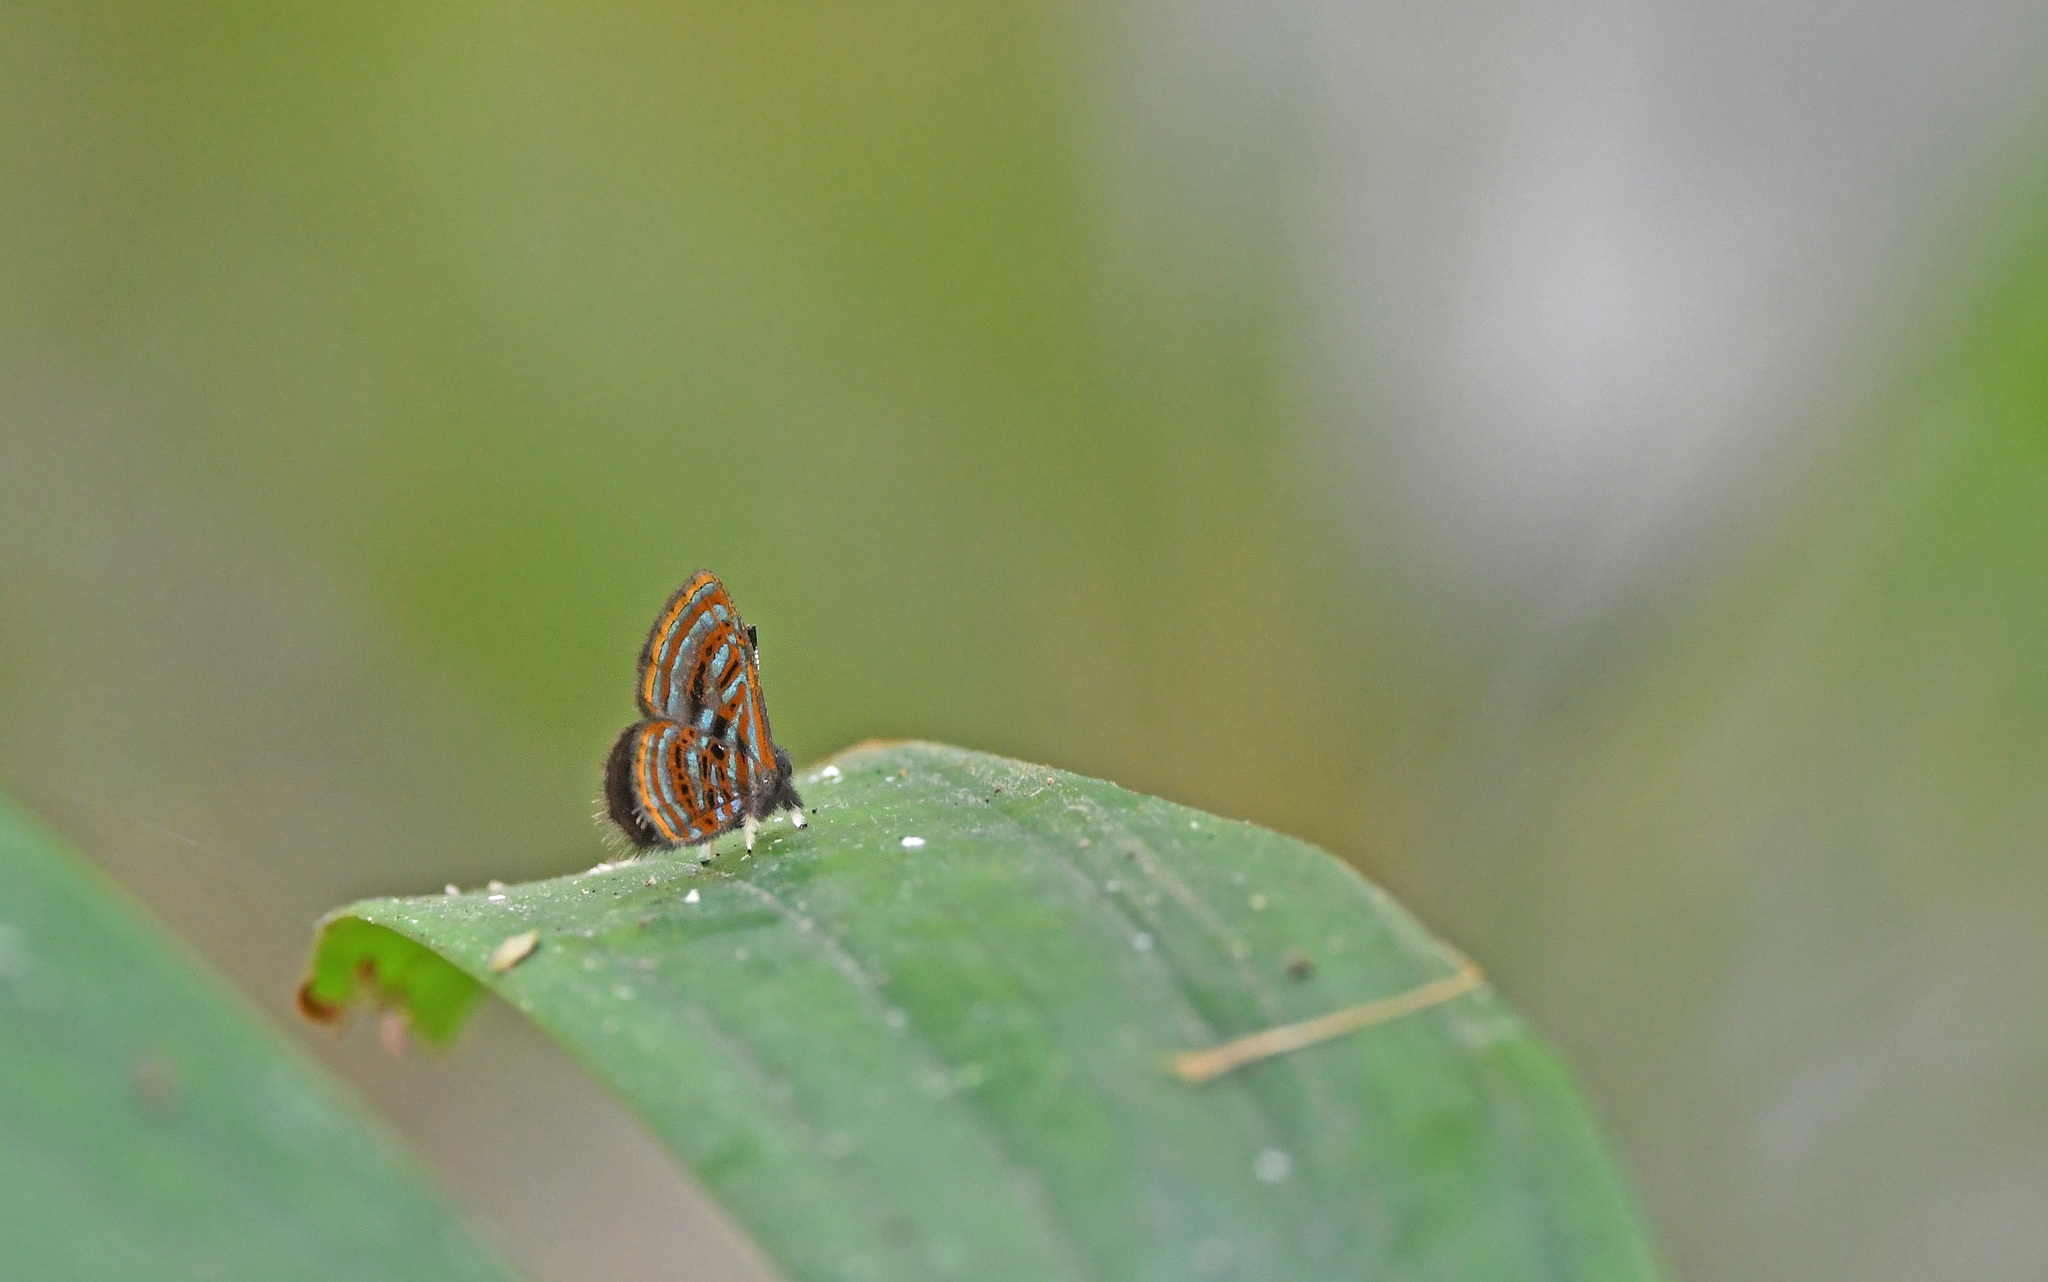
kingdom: Animalia
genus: Charis
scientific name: Charis
